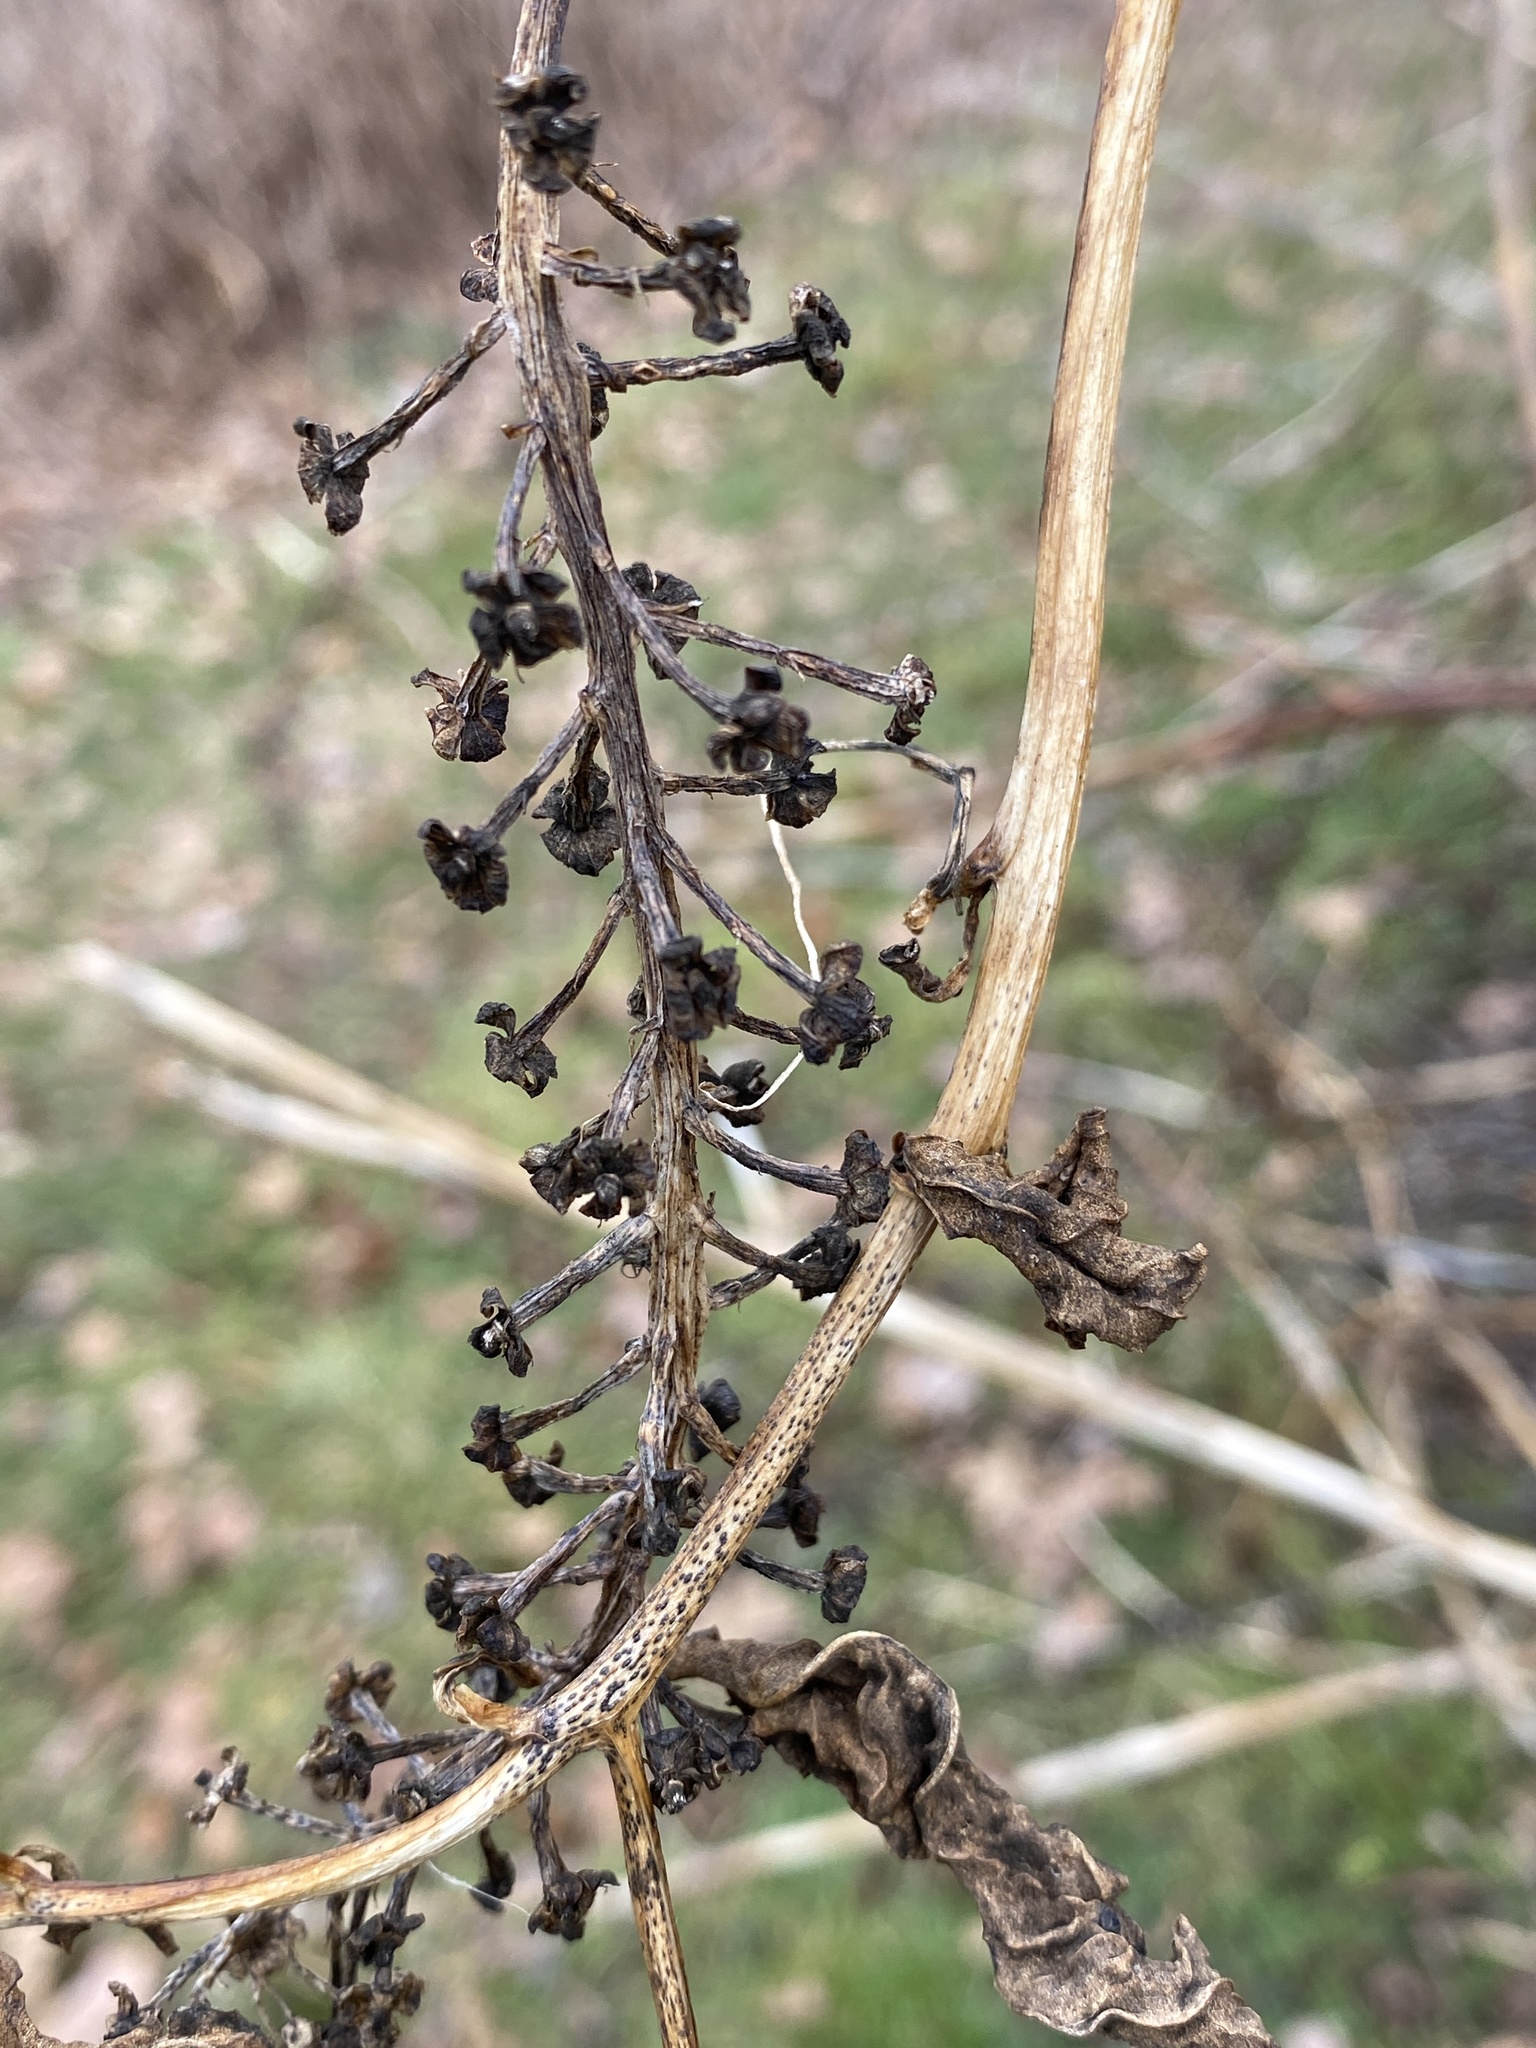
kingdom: Plantae
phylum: Tracheophyta
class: Magnoliopsida
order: Caryophyllales
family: Phytolaccaceae
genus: Phytolacca
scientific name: Phytolacca americana
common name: American pokeweed
